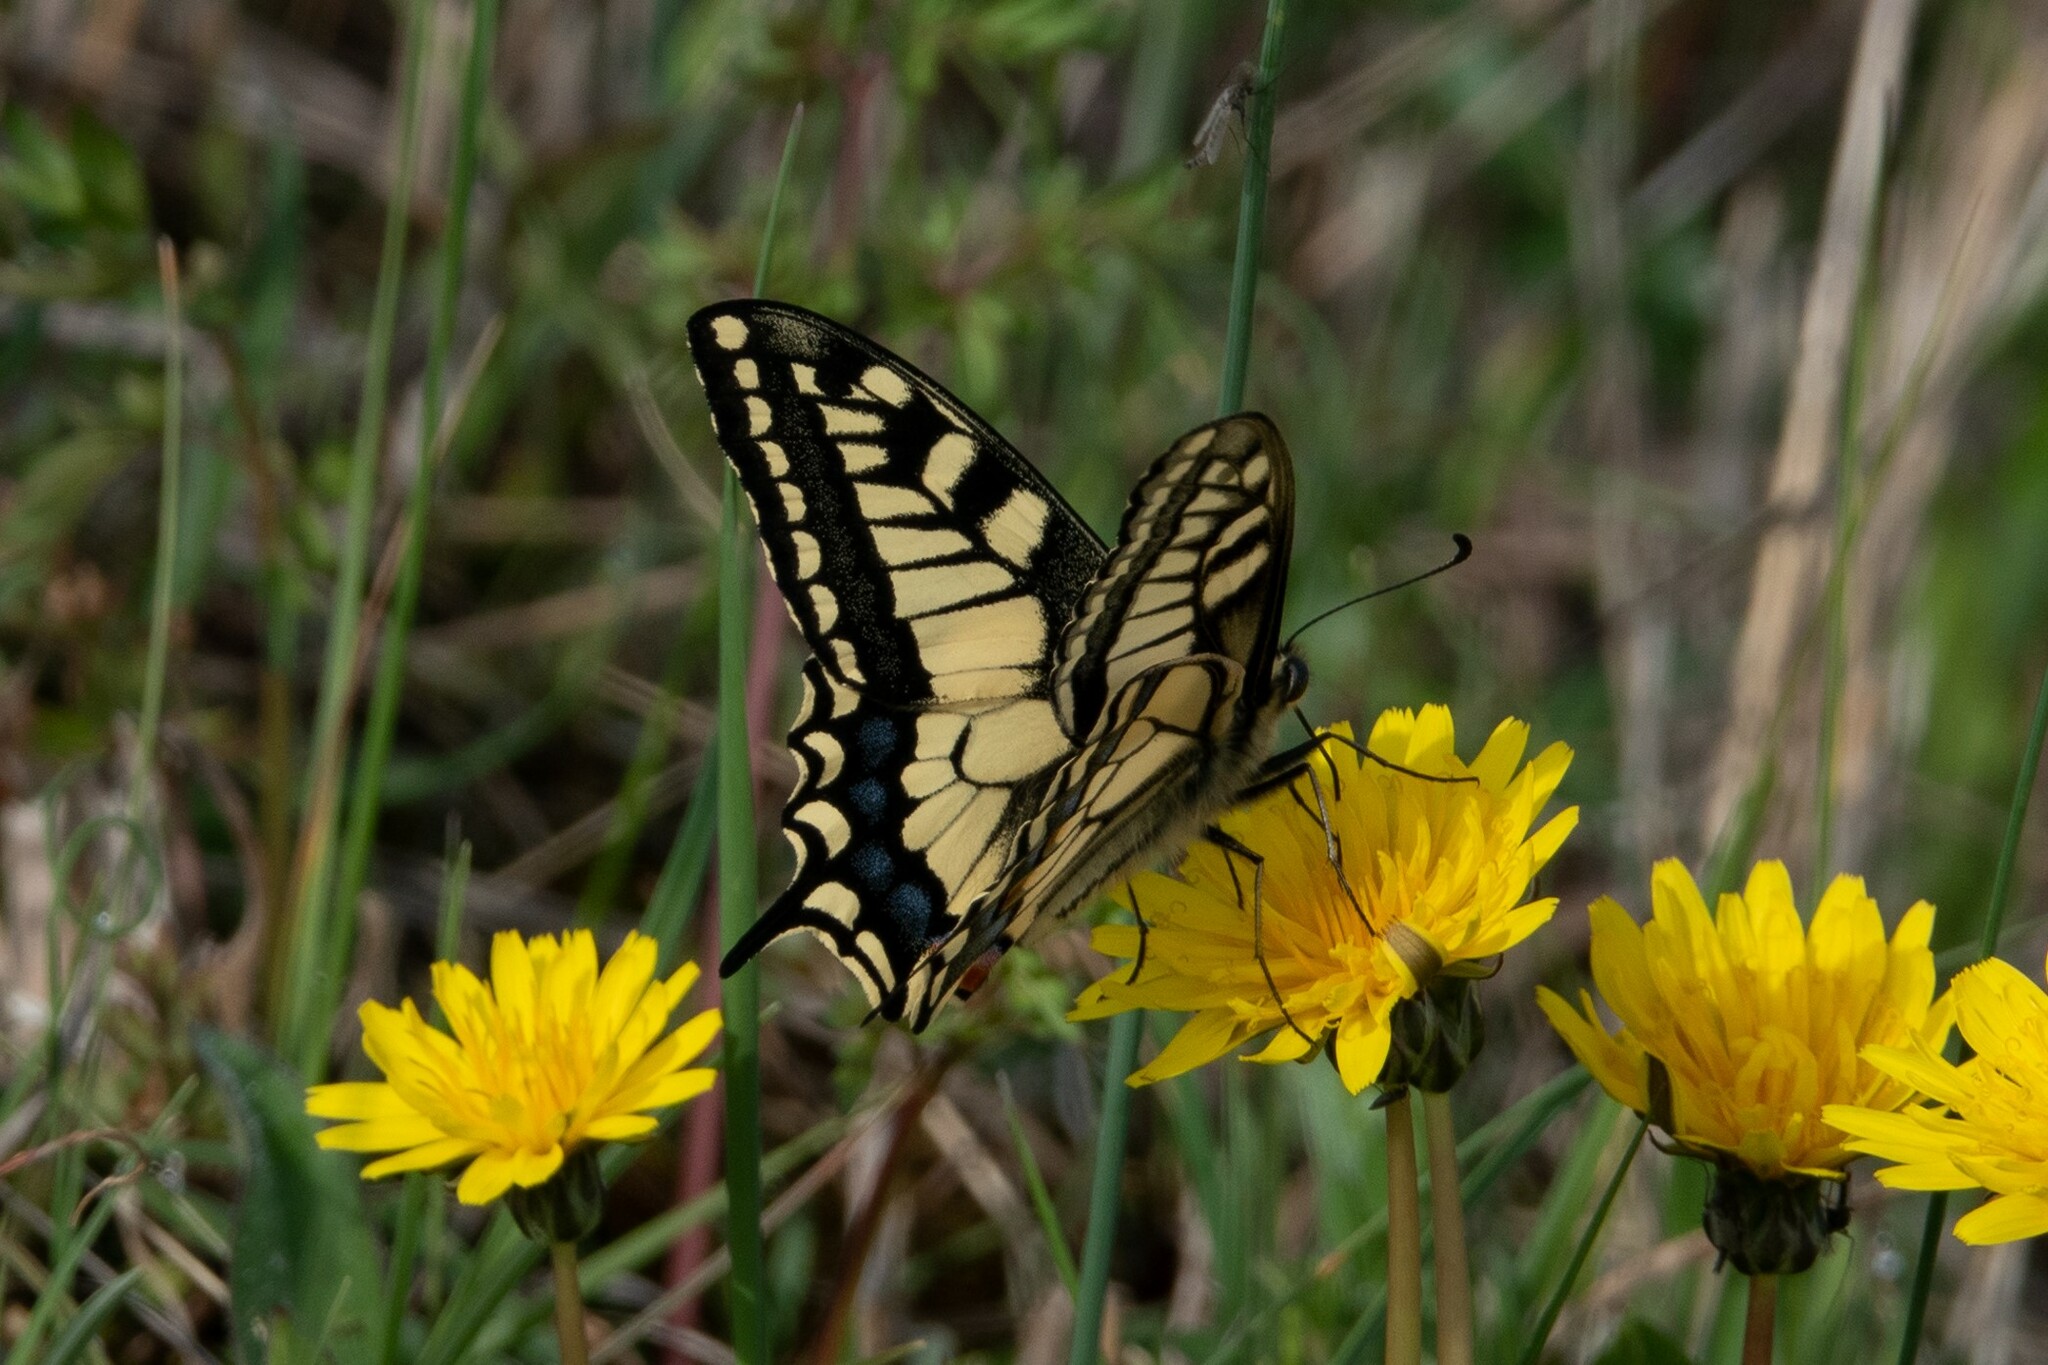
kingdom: Animalia
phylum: Arthropoda
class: Insecta
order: Lepidoptera
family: Papilionidae
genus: Papilio
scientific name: Papilio machaon
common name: Swallowtail
